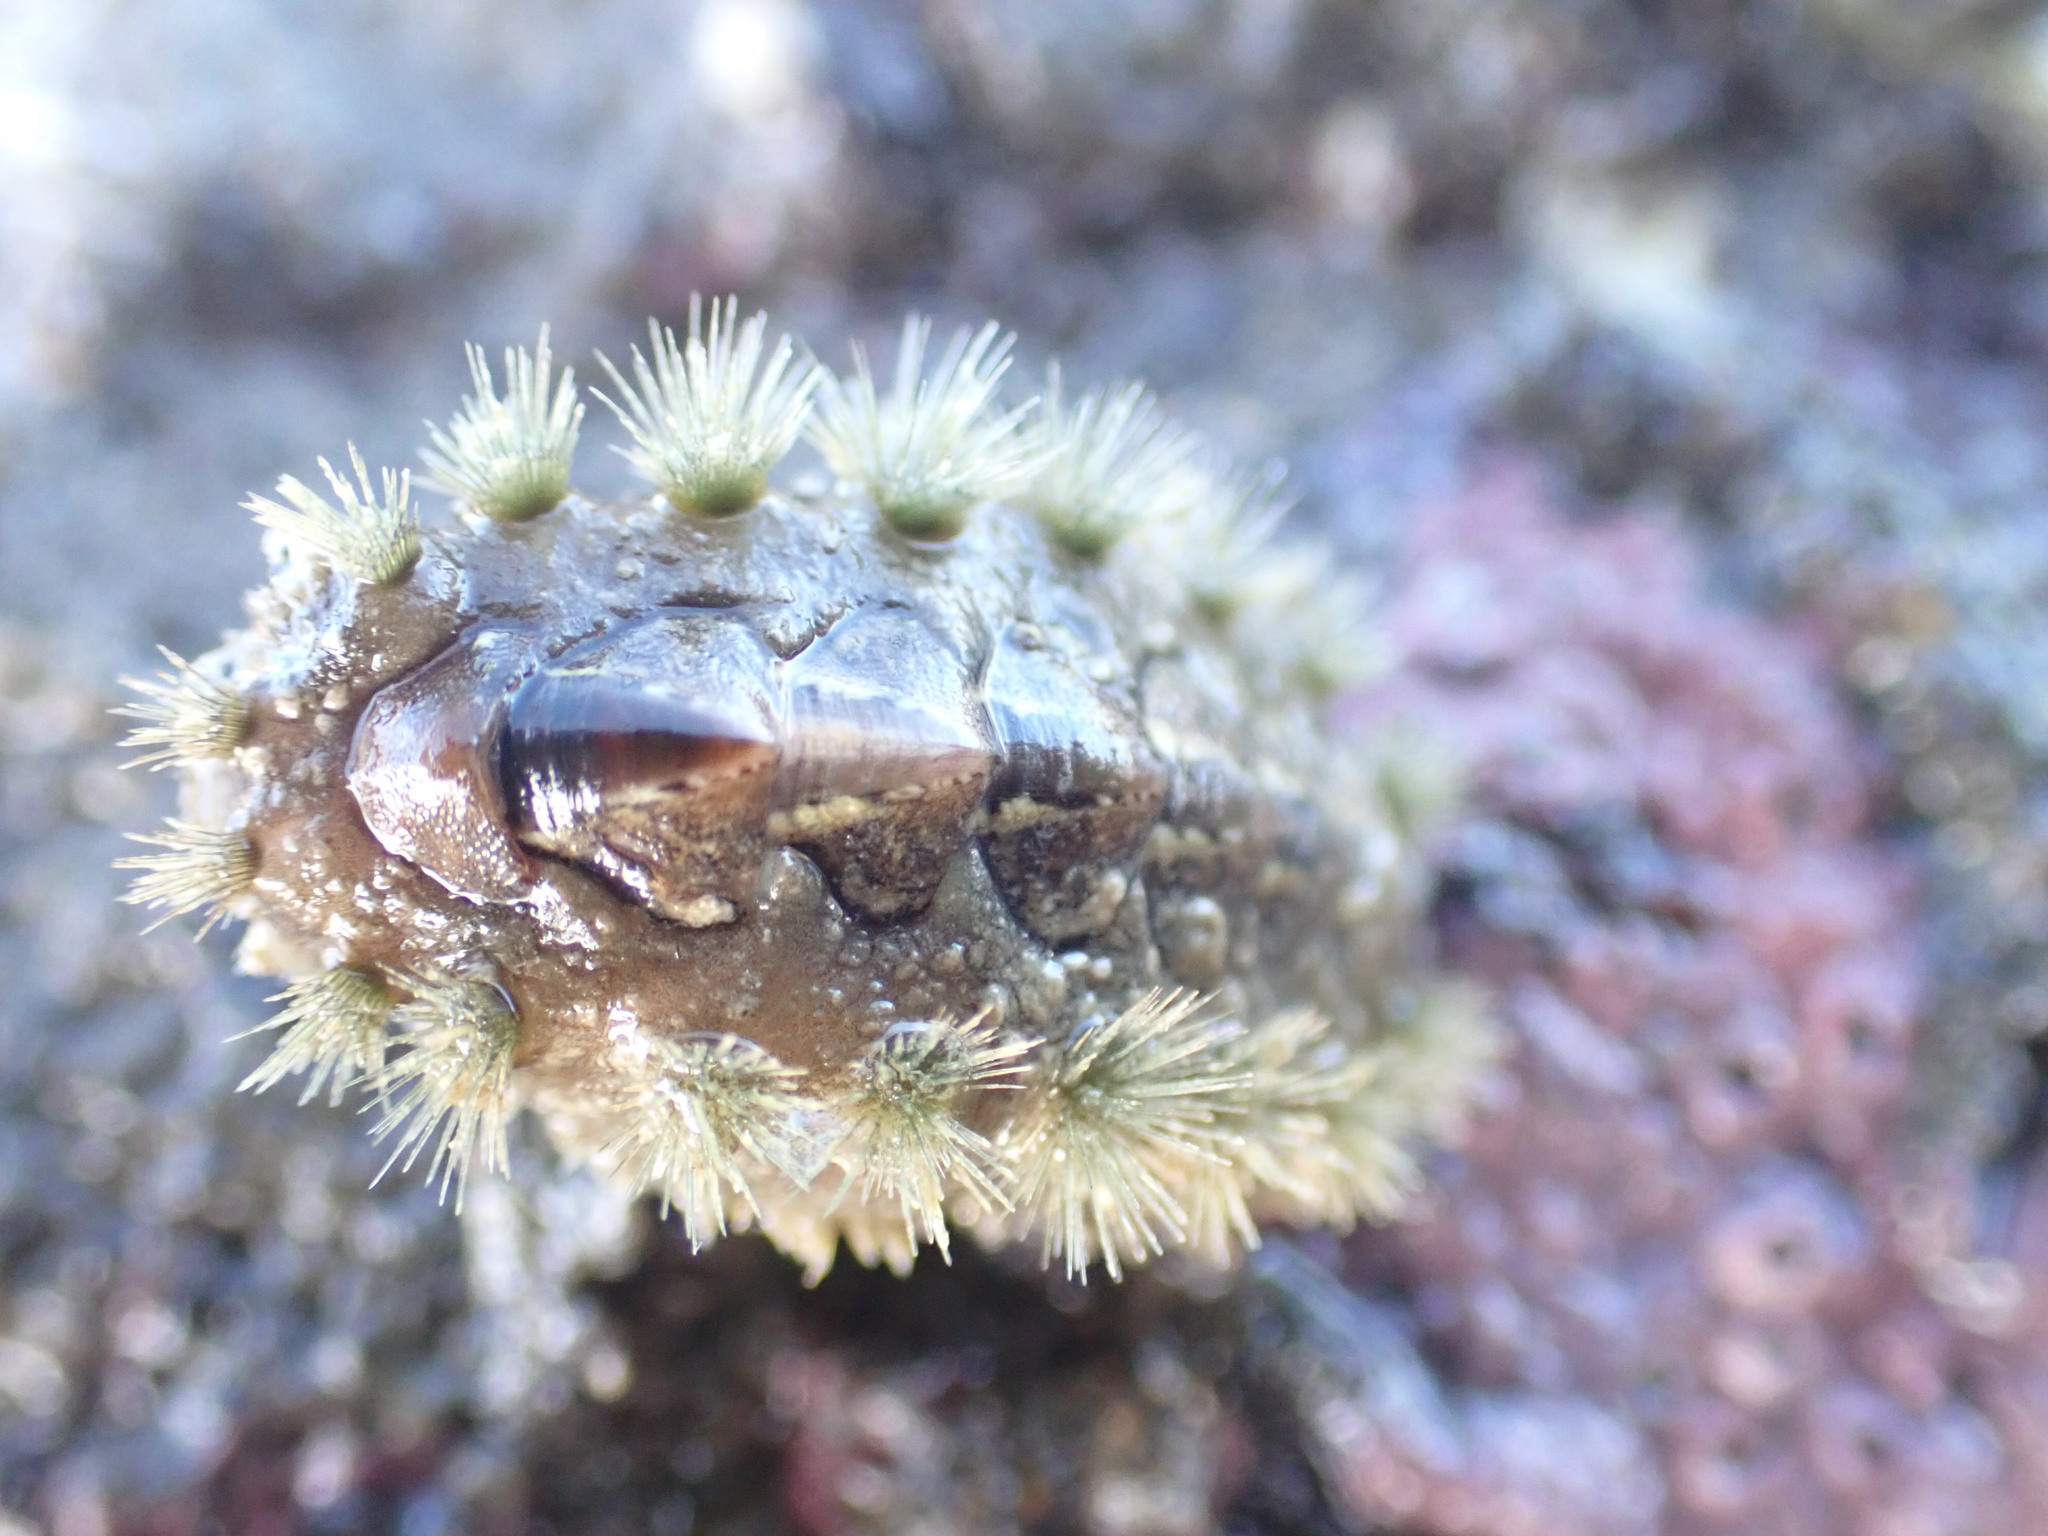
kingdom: Animalia
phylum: Mollusca
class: Polyplacophora
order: Chitonida
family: Acanthochitonidae
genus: Acanthochitona
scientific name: Acanthochitona zelandica
